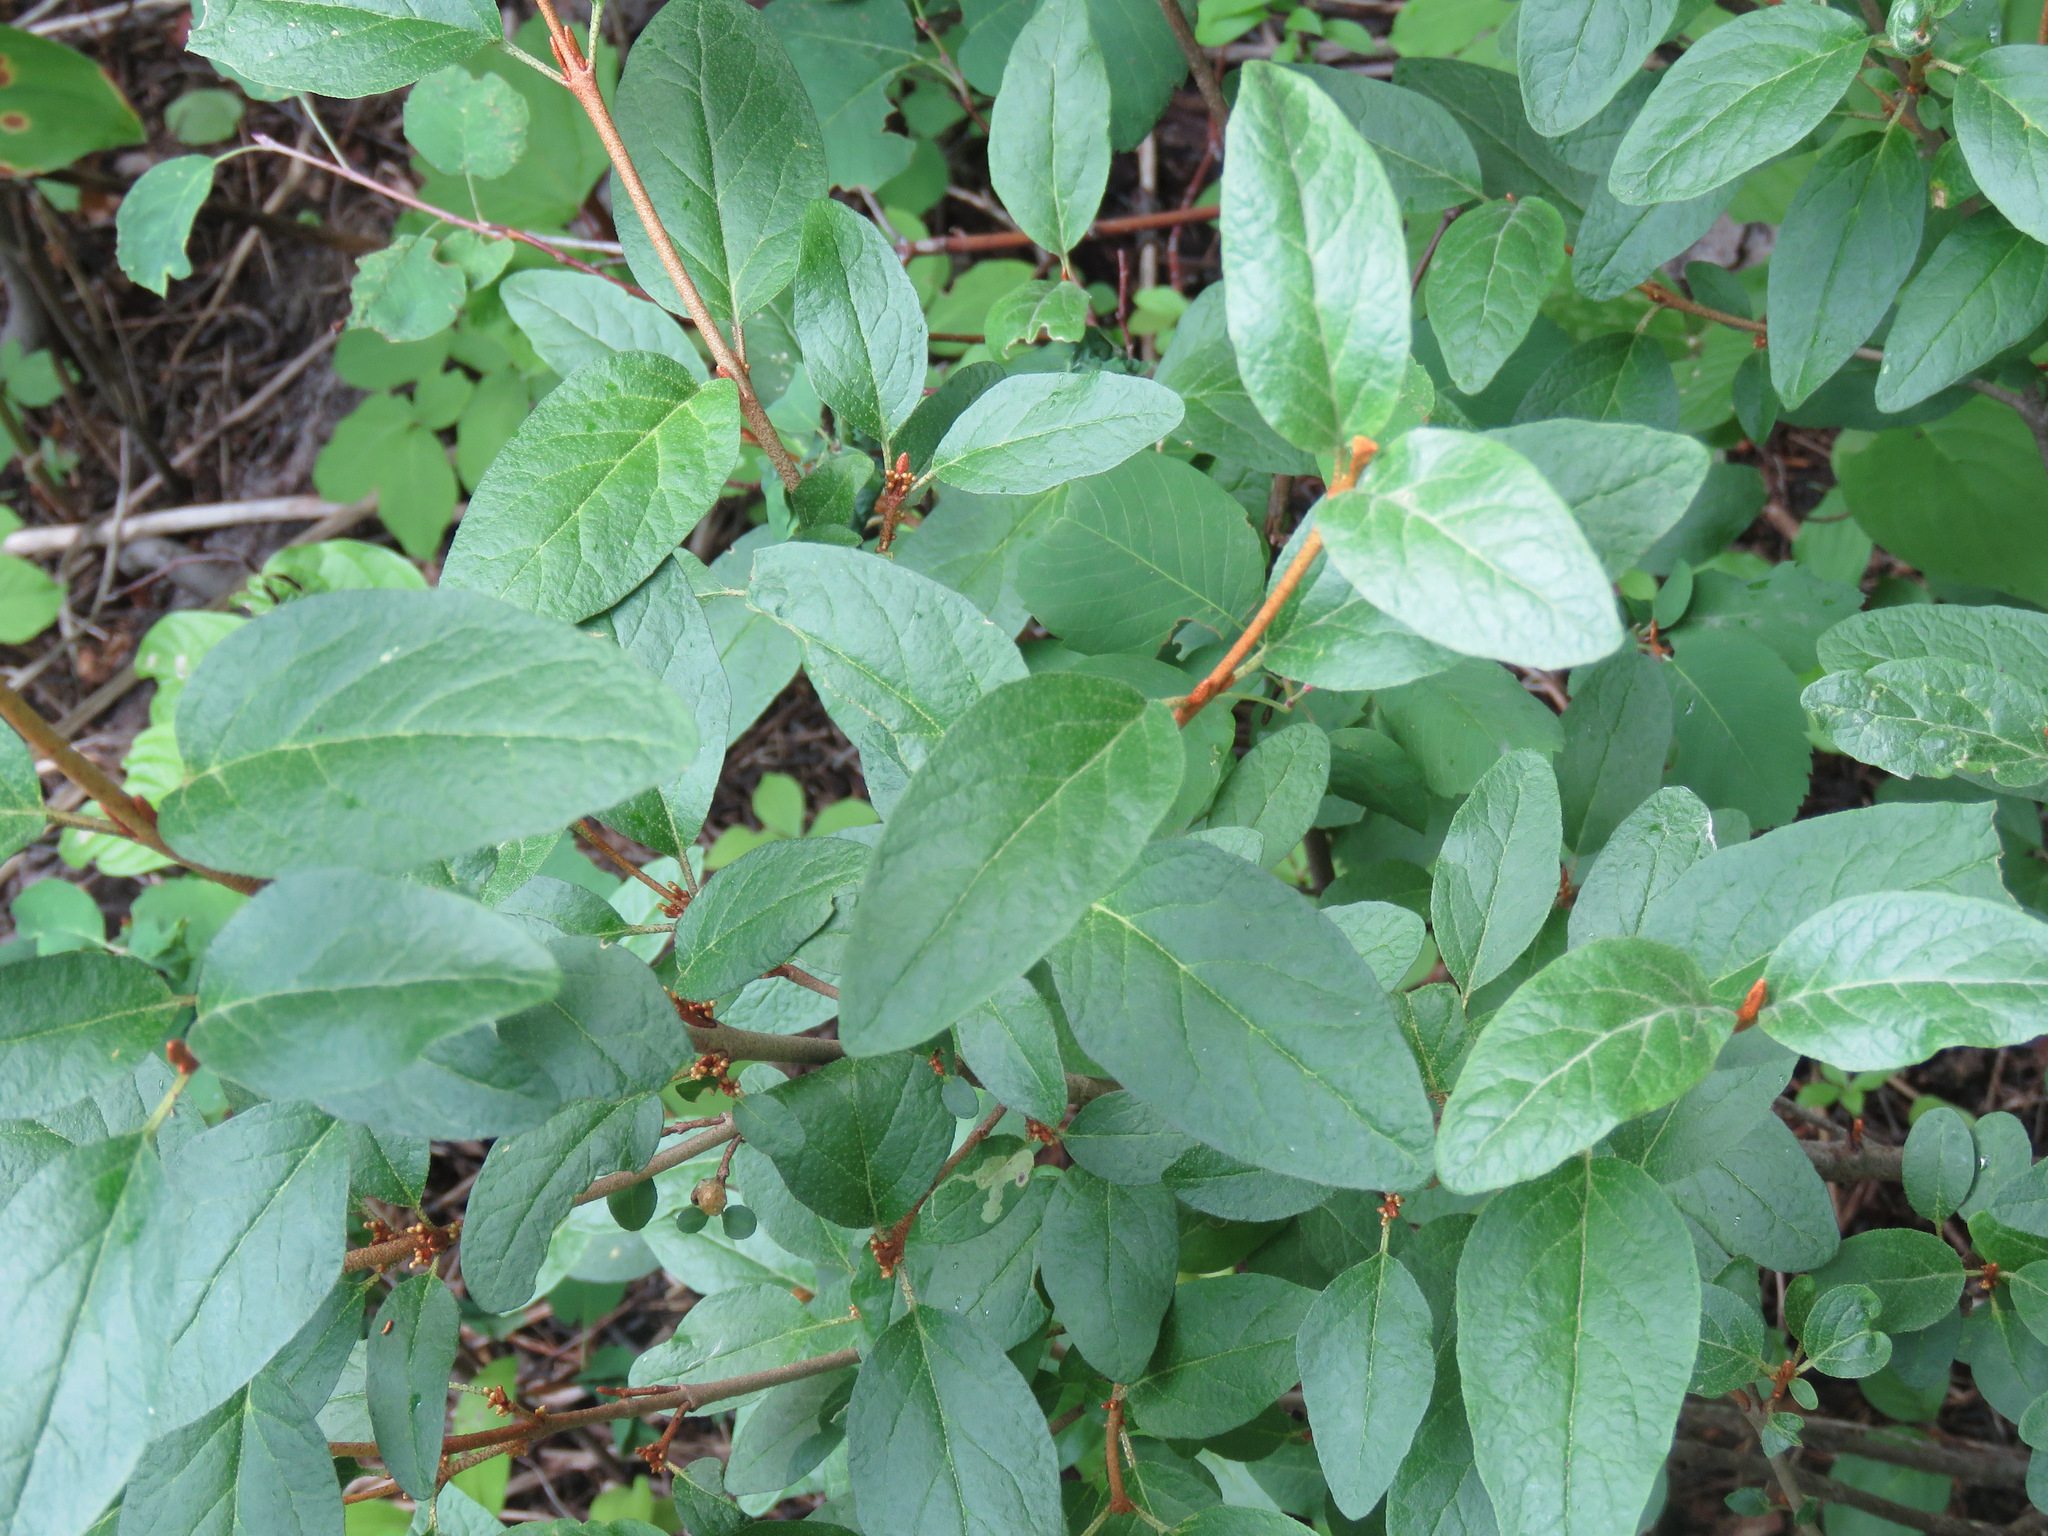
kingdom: Plantae
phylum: Tracheophyta
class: Magnoliopsida
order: Rosales
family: Elaeagnaceae
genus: Shepherdia
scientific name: Shepherdia canadensis
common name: Soapberry
